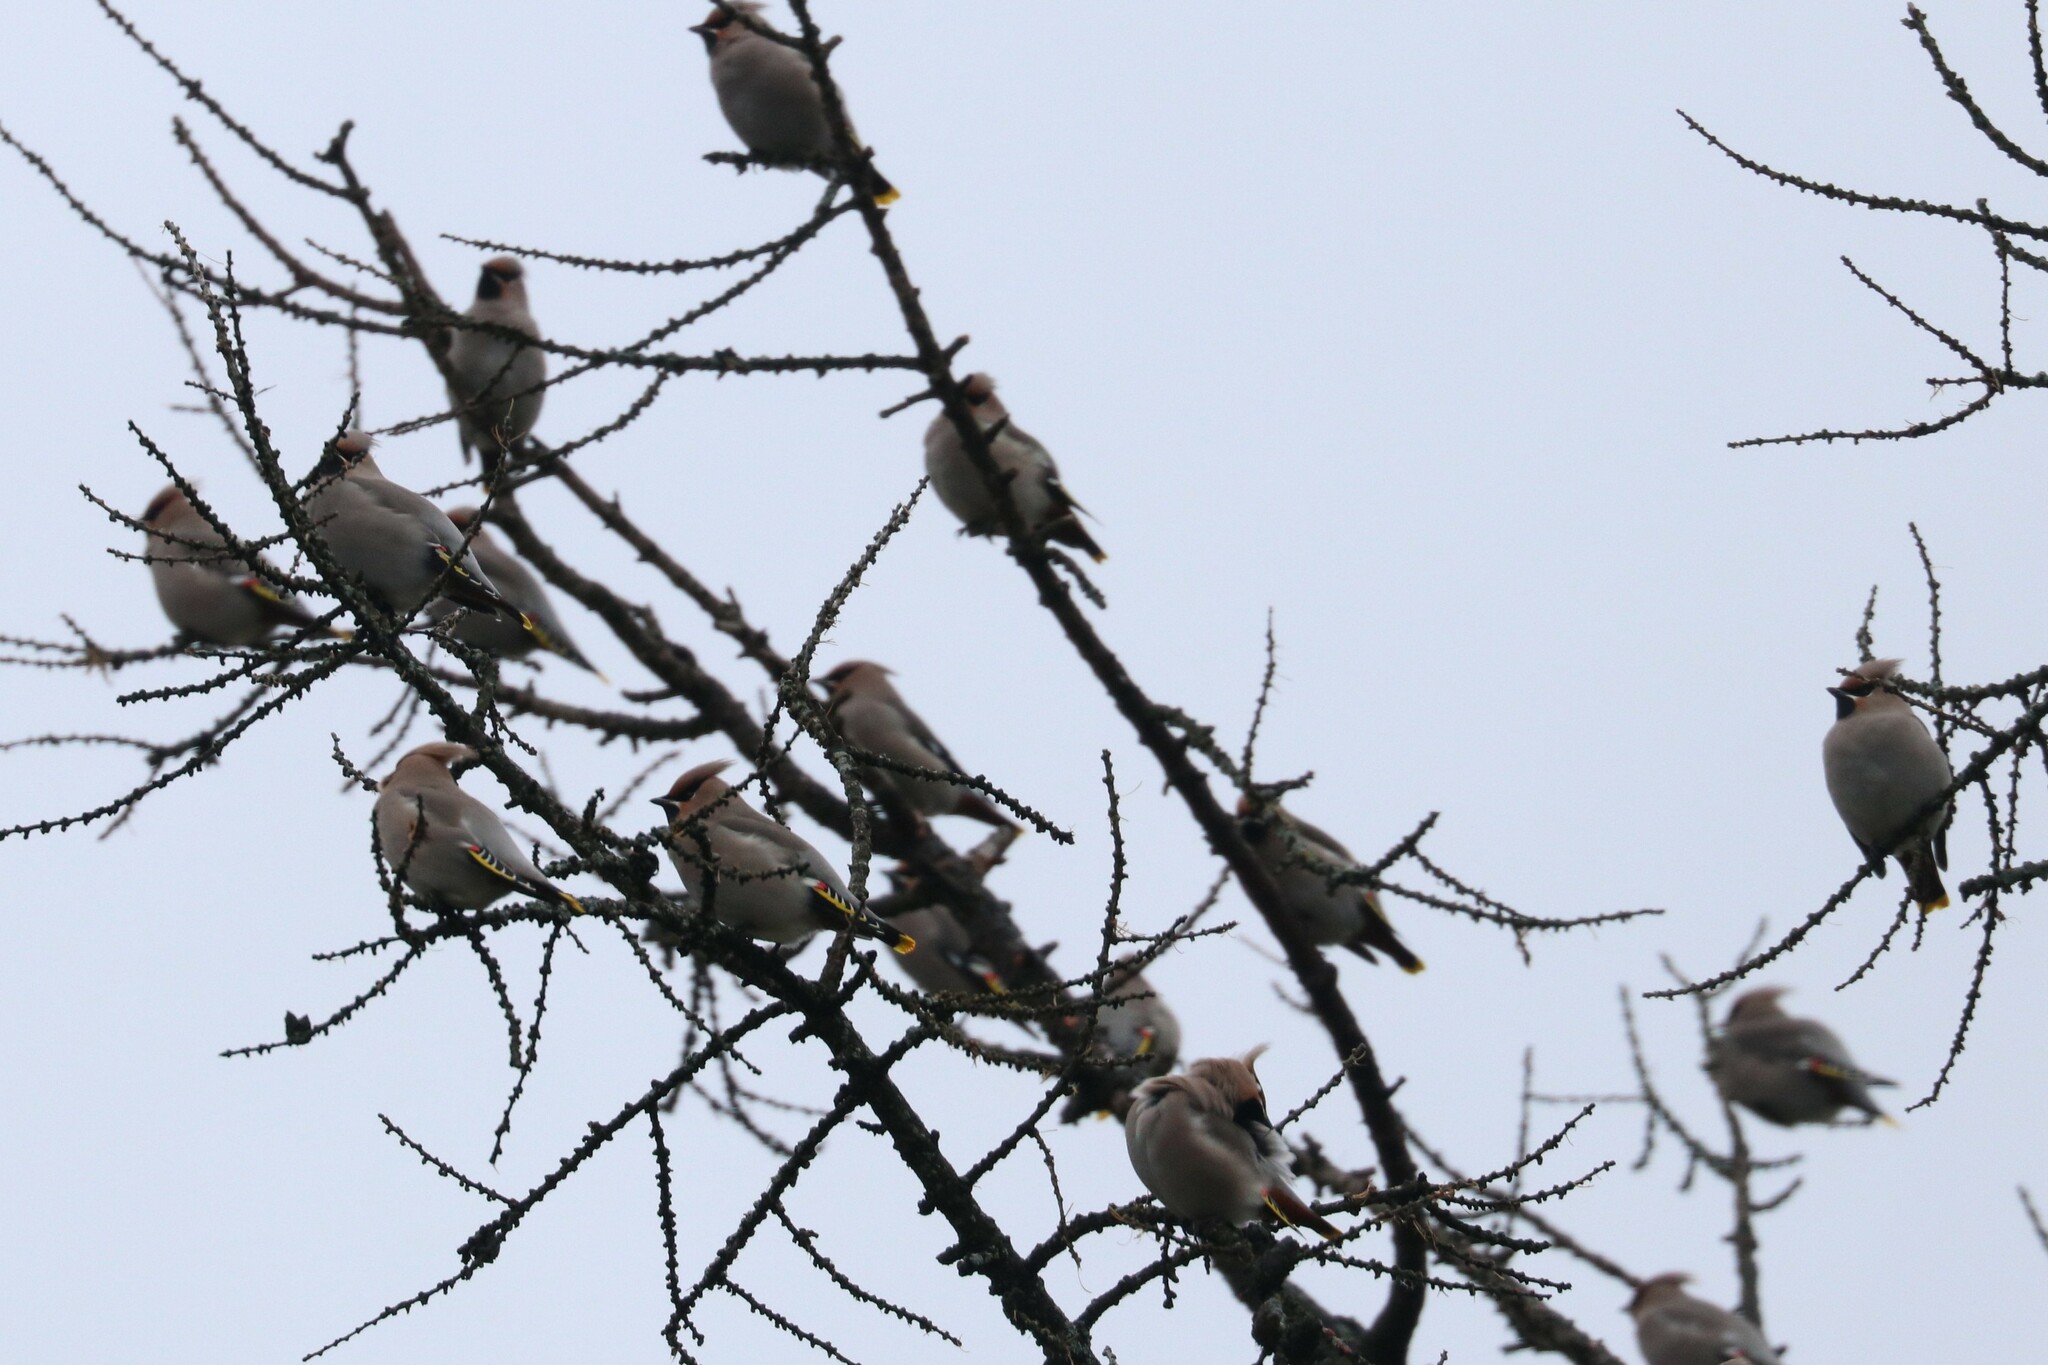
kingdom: Animalia
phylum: Chordata
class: Aves
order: Passeriformes
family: Bombycillidae
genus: Bombycilla
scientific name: Bombycilla garrulus
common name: Bohemian waxwing
